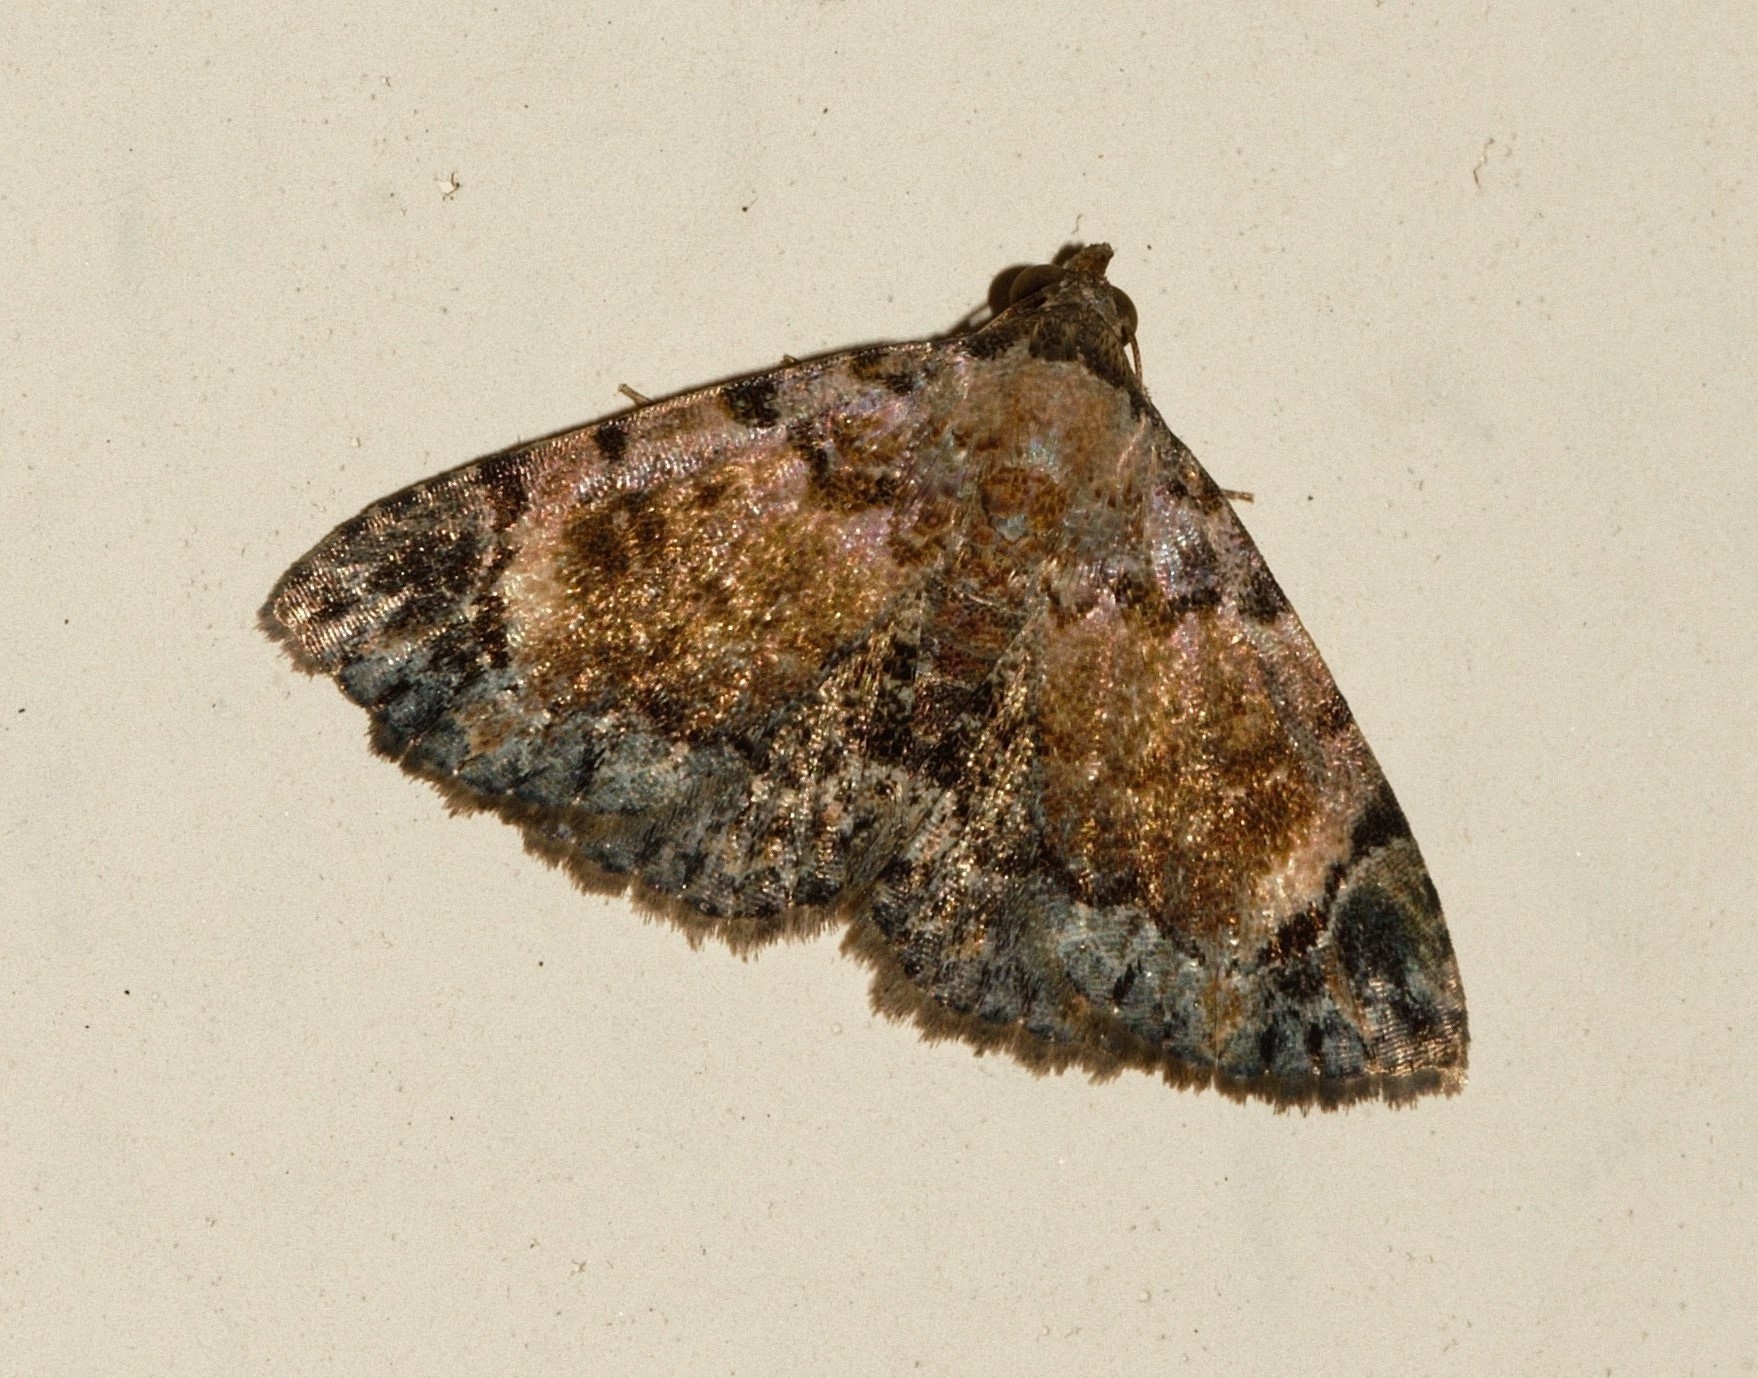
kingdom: Animalia
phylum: Arthropoda
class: Insecta
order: Lepidoptera
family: Noctuidae
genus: Eublemma
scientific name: Eublemma decora
